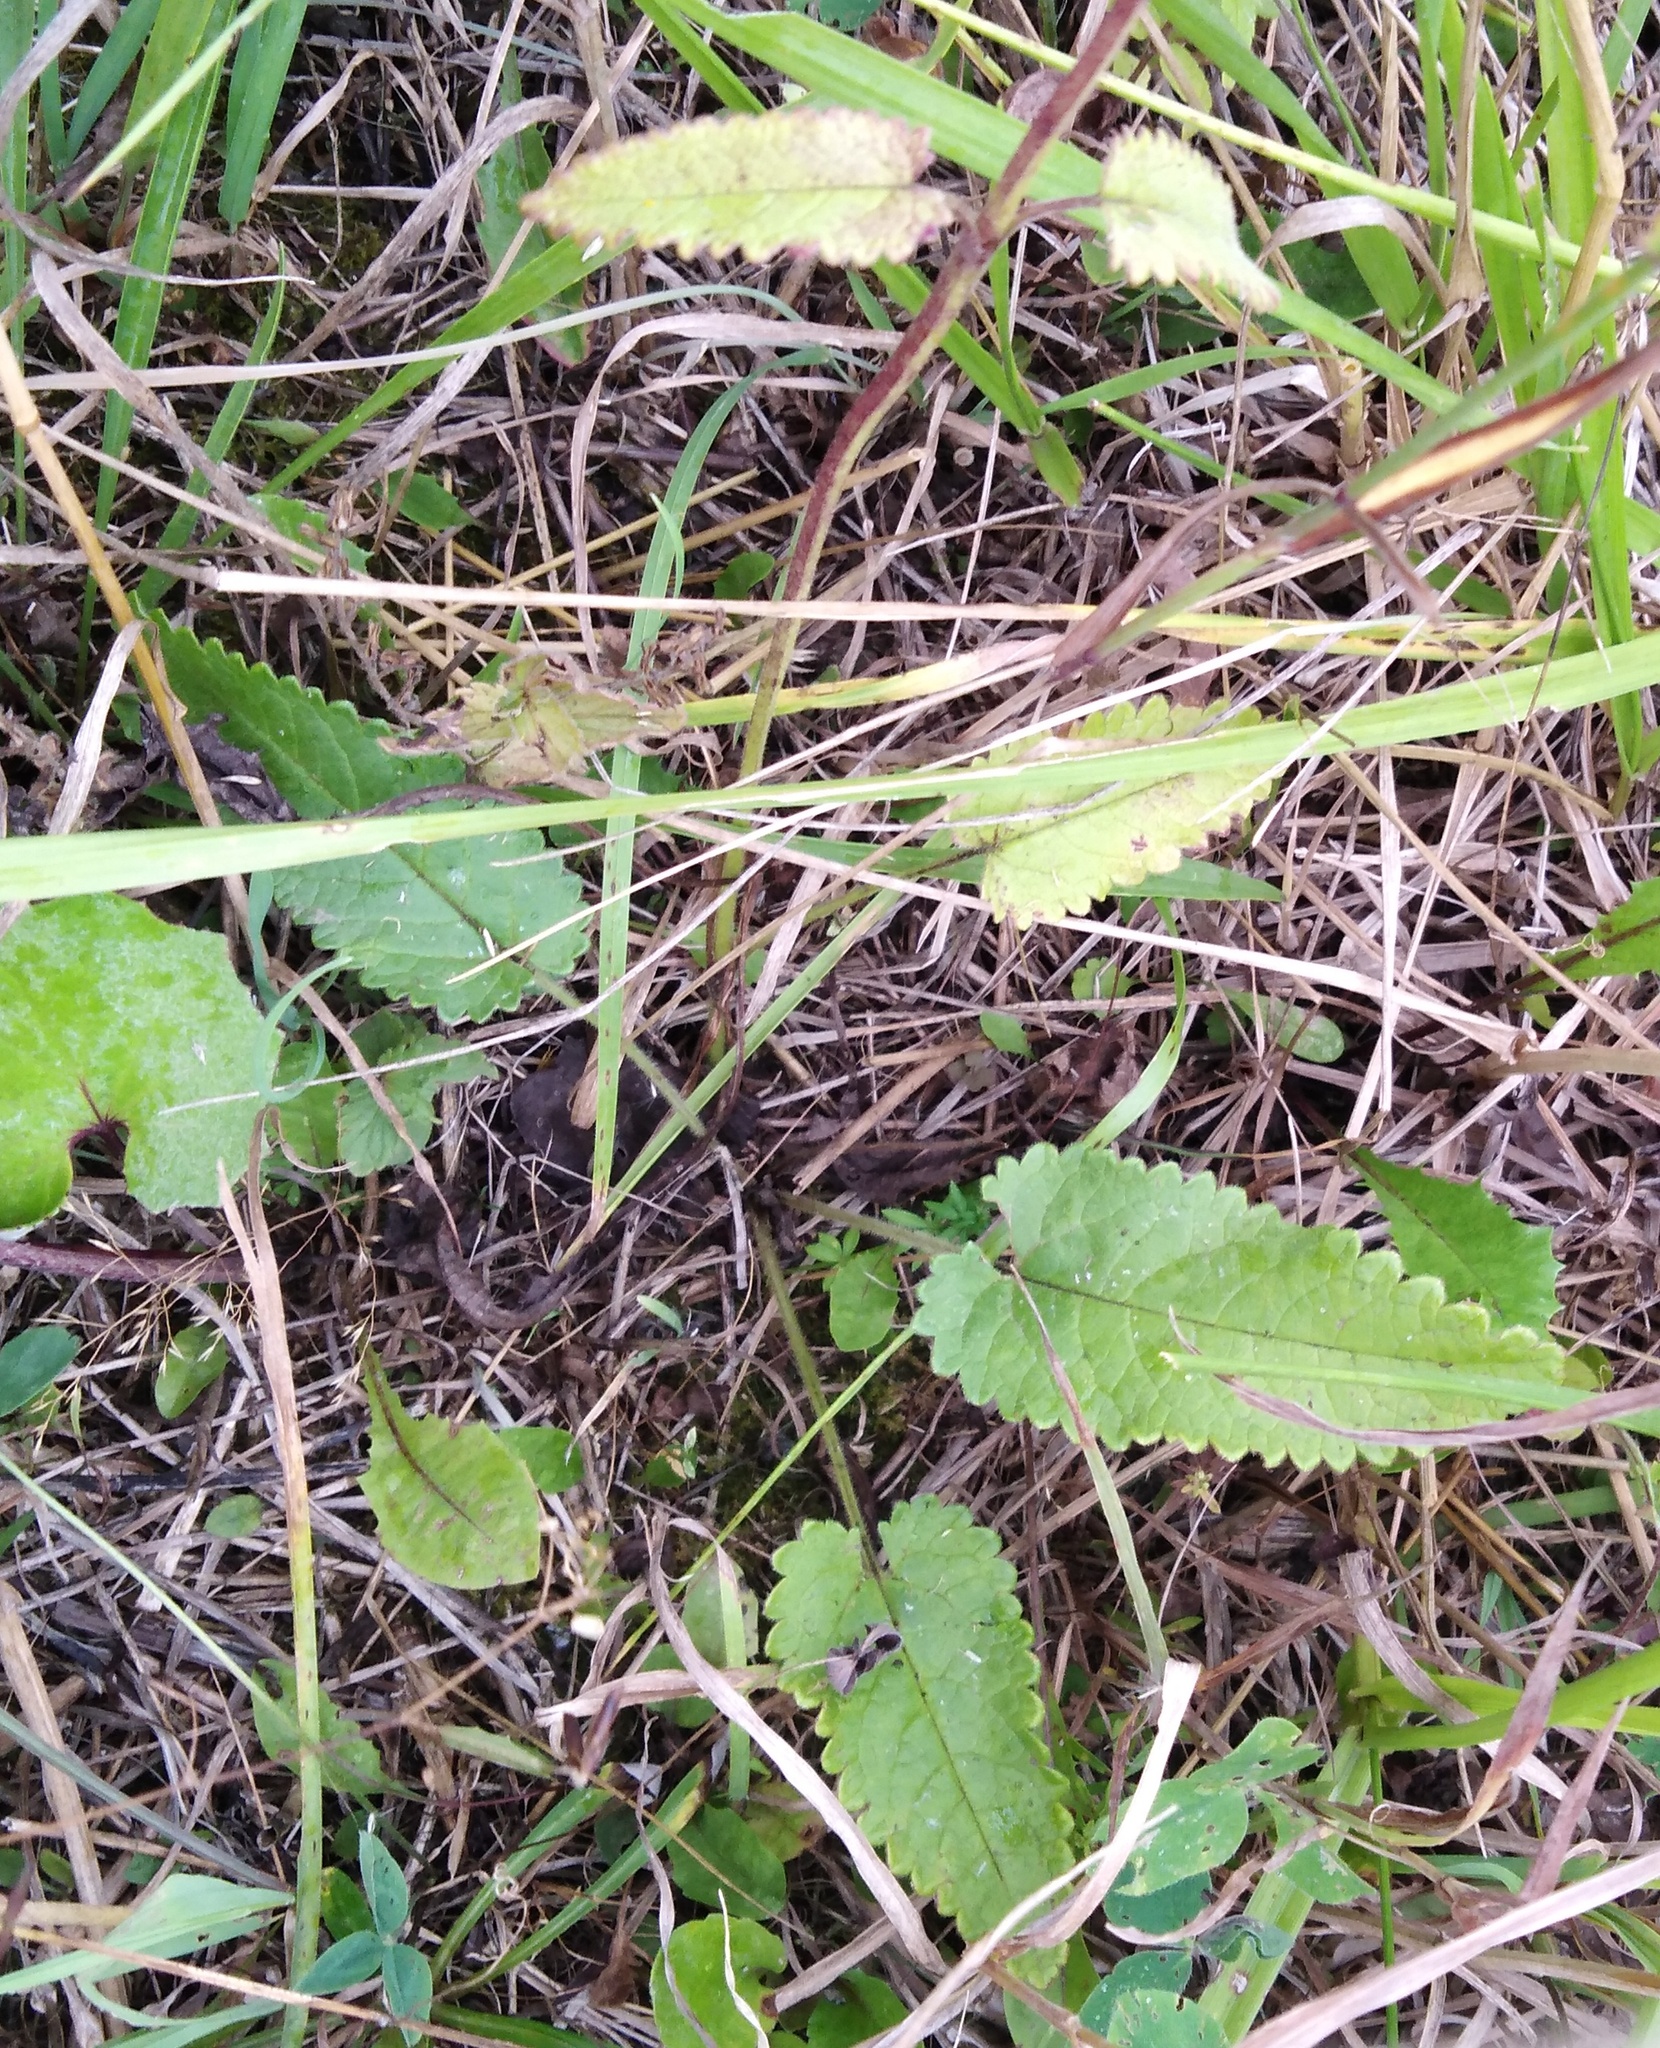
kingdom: Plantae
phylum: Tracheophyta
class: Magnoliopsida
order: Lamiales
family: Lamiaceae
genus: Betonica
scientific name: Betonica officinalis
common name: Bishop's-wort
